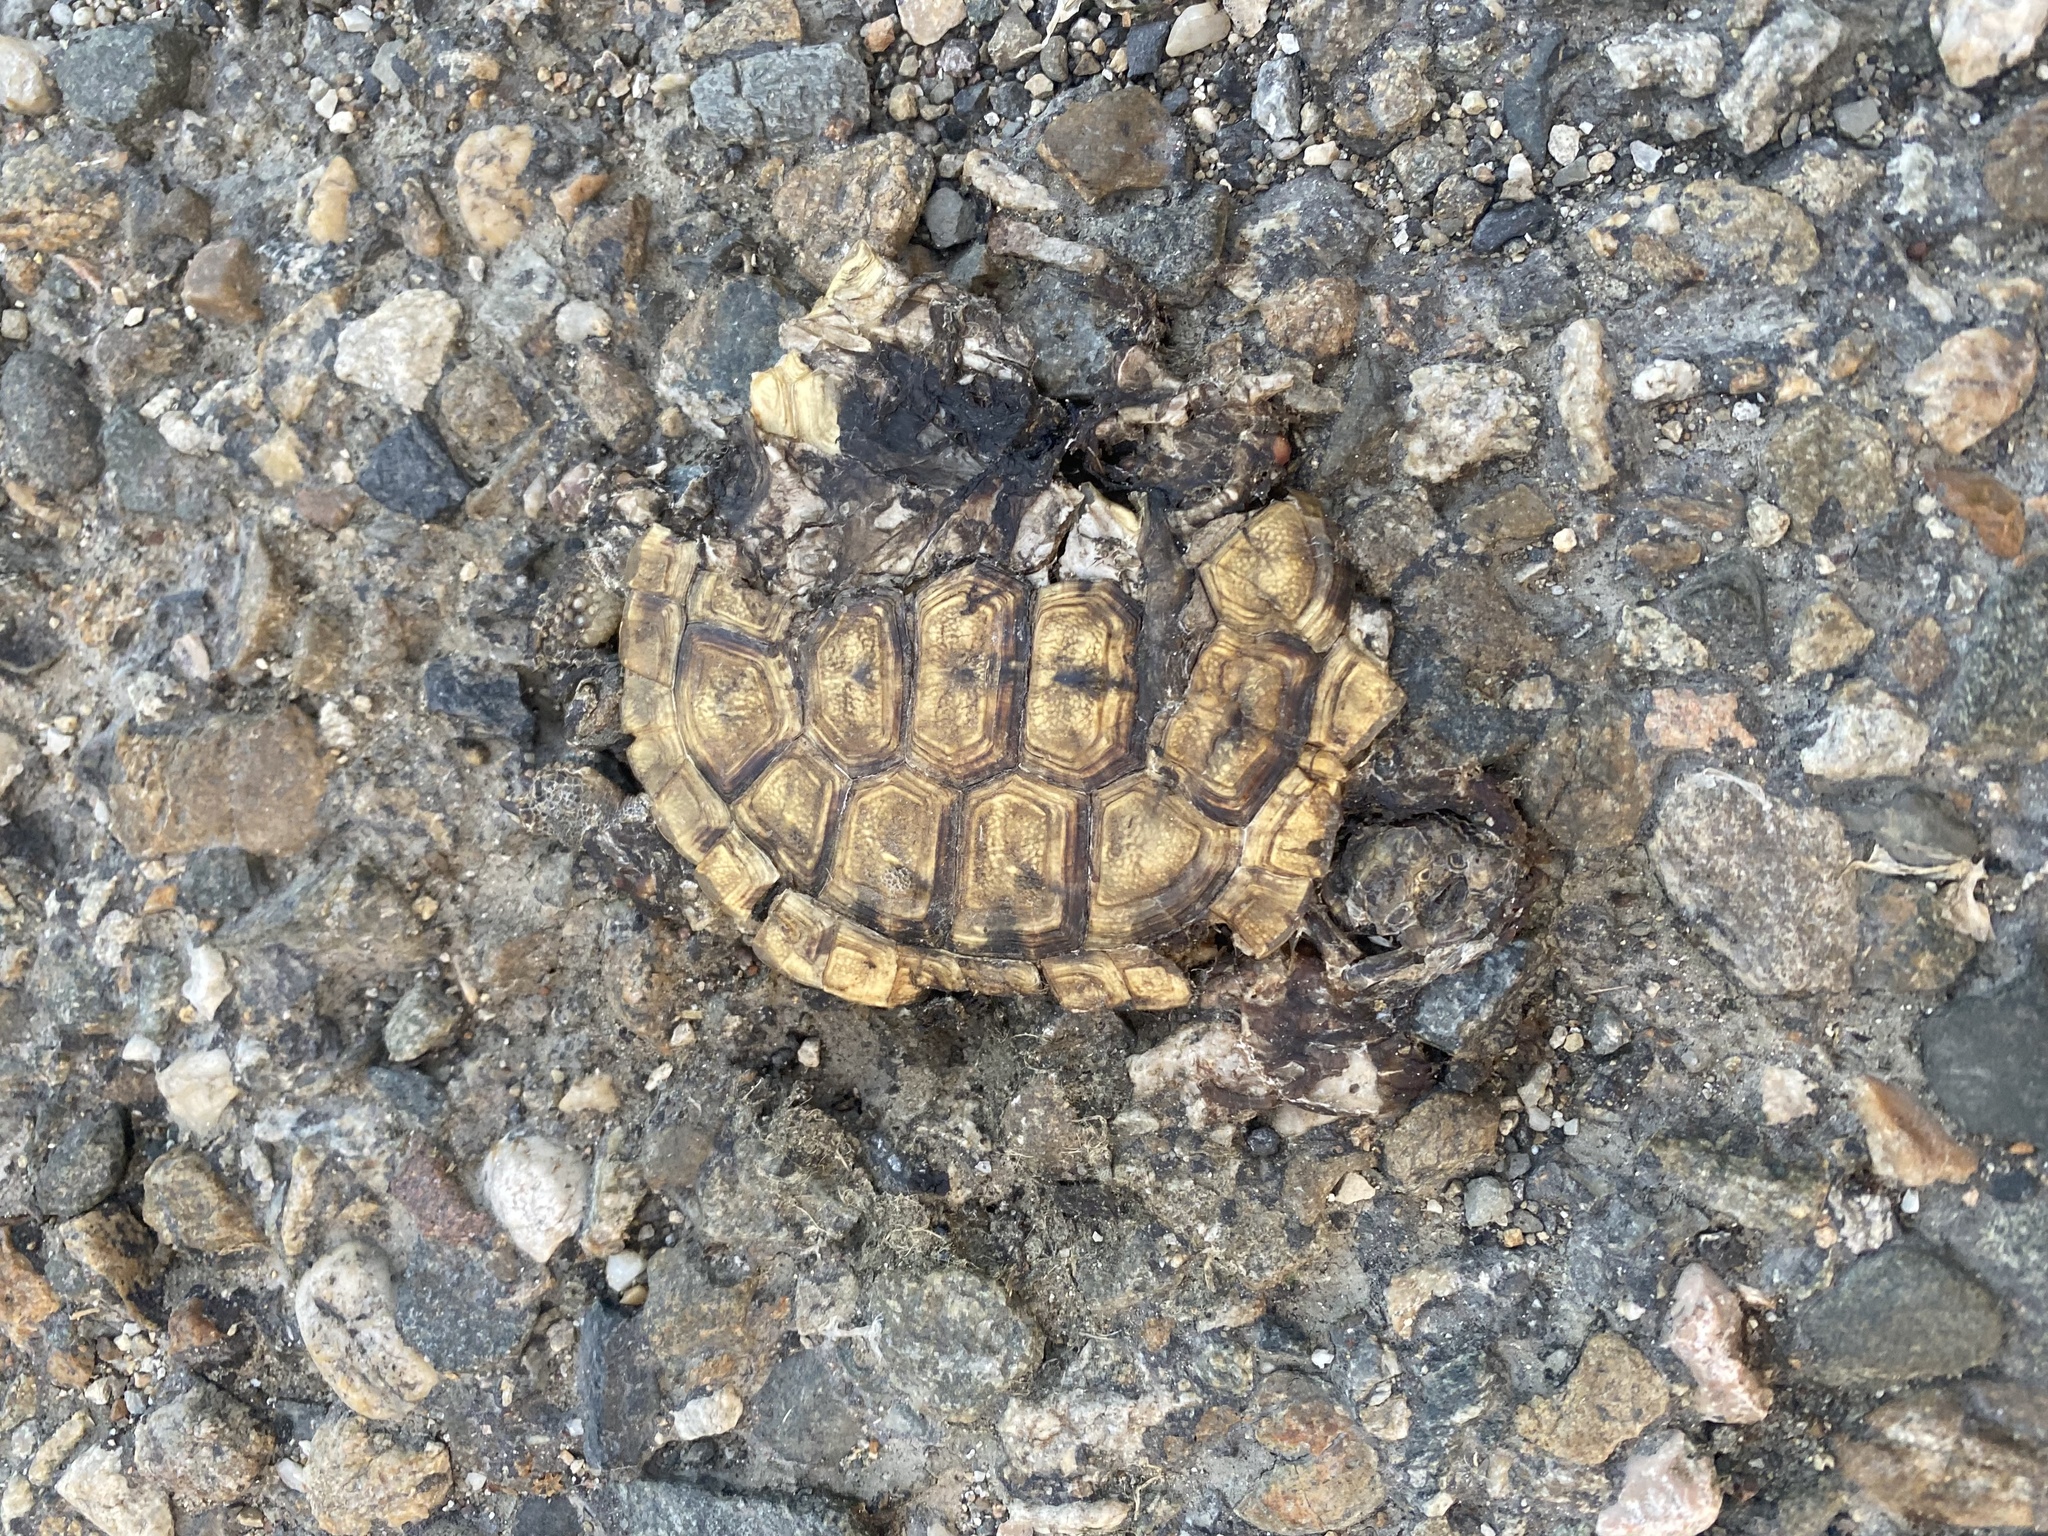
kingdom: Animalia
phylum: Chordata
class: Testudines
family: Testudinidae
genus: Testudo
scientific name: Testudo graeca
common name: Common tortoise
